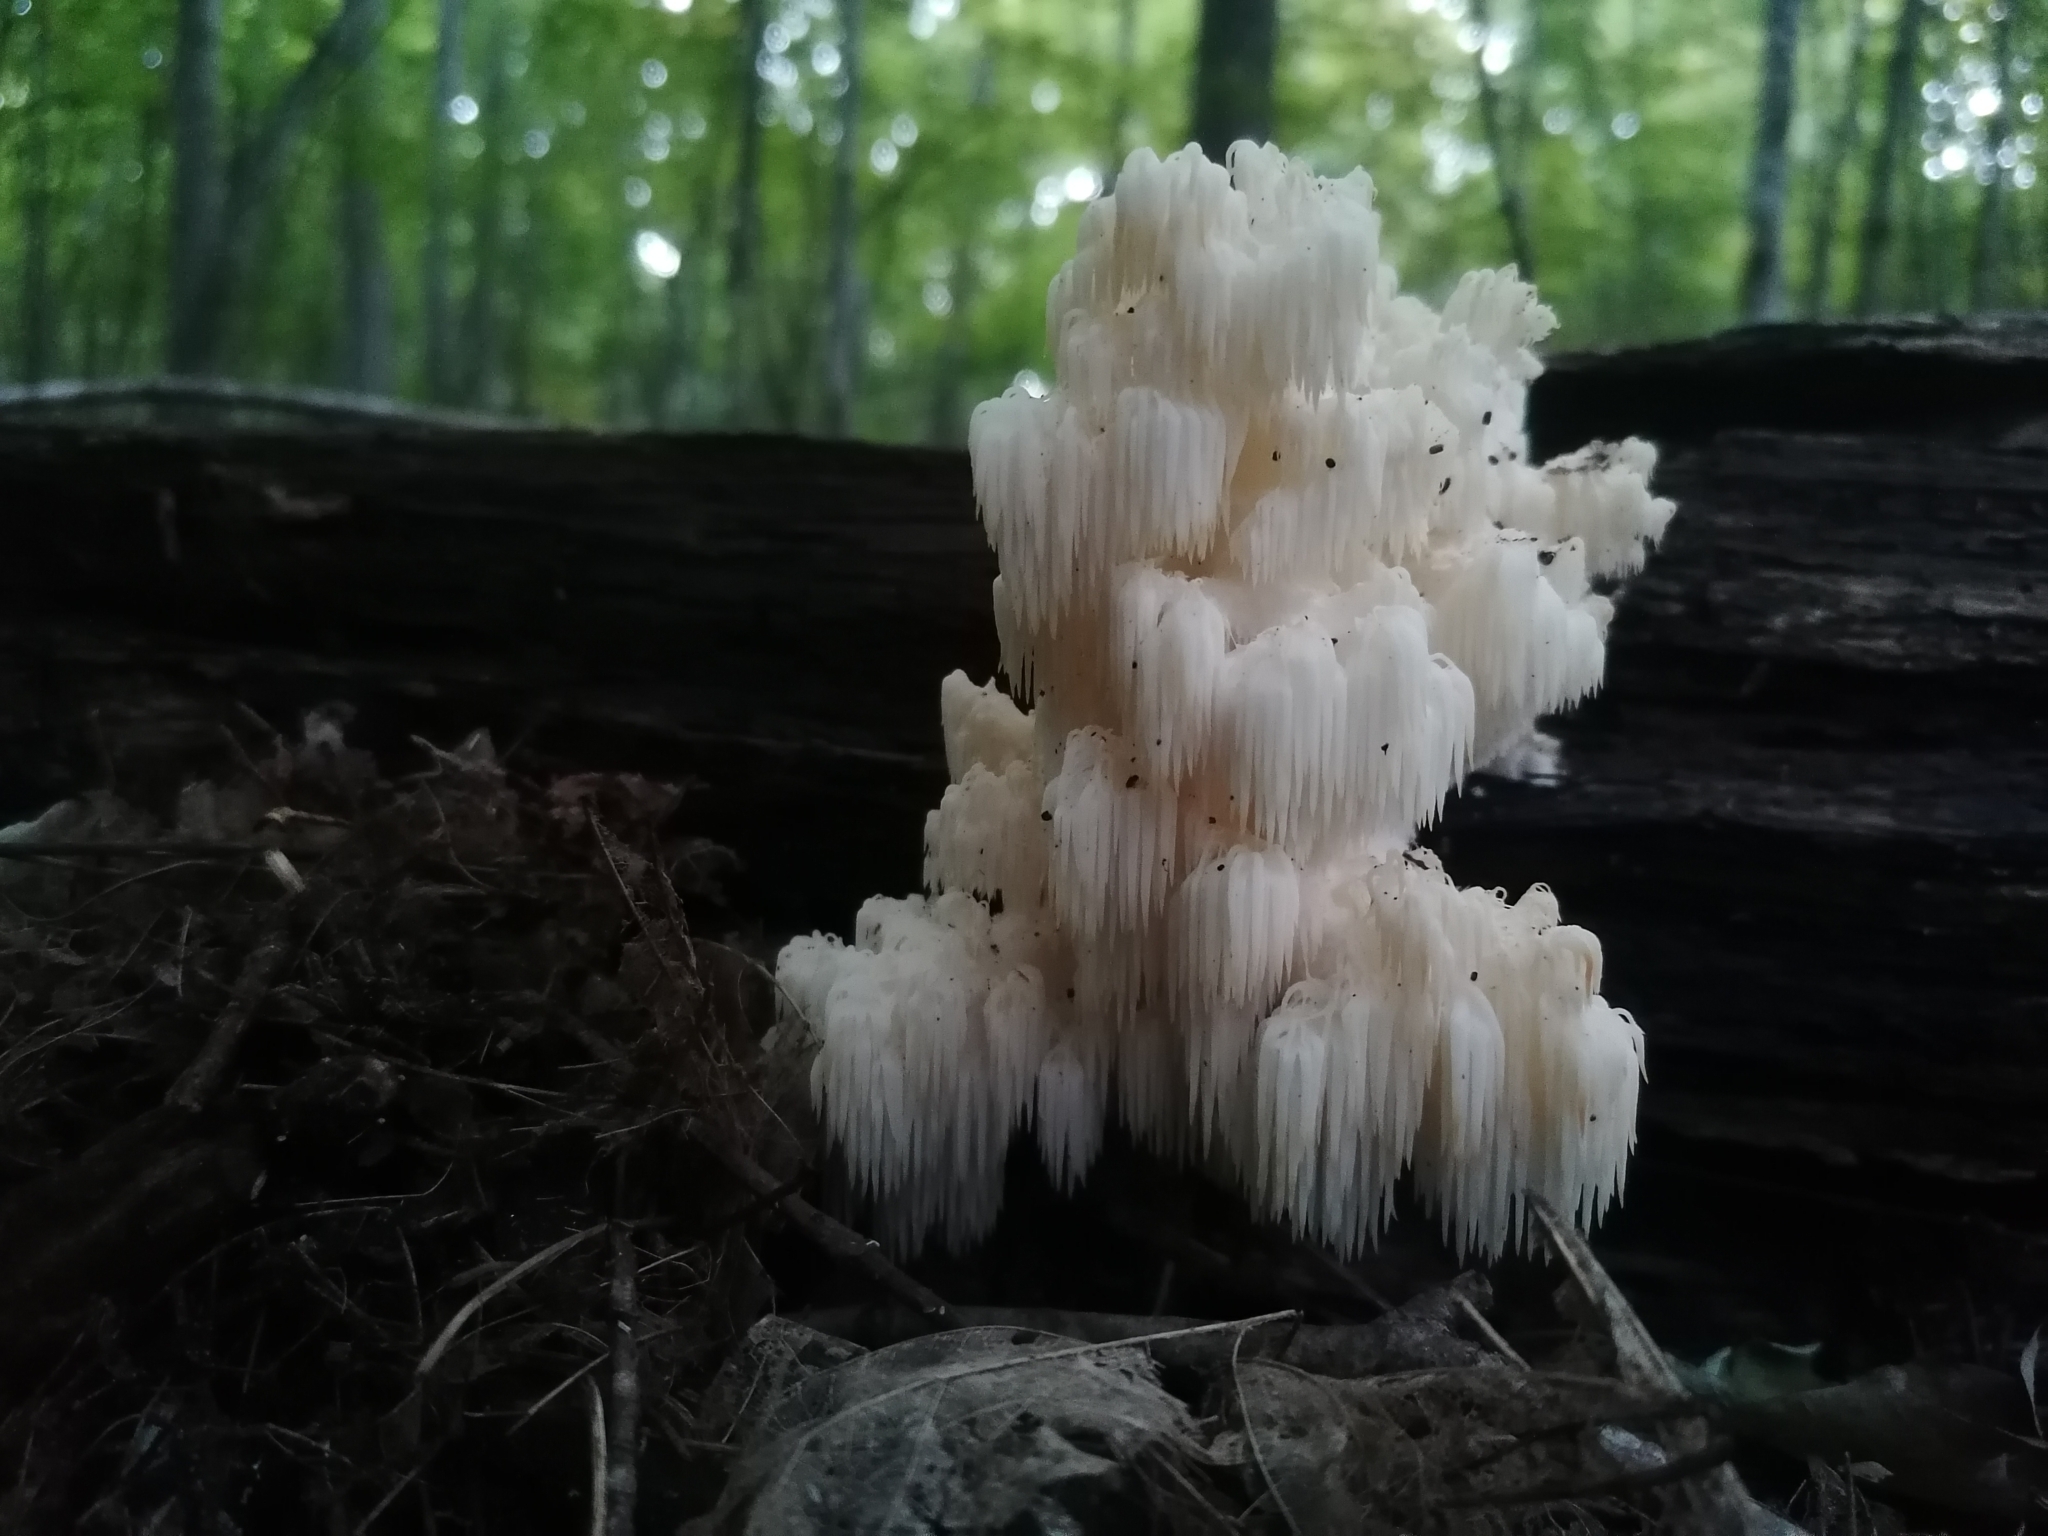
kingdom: Fungi
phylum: Basidiomycota
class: Agaricomycetes
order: Russulales
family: Hericiaceae
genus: Hericium
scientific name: Hericium americanum
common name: Bear's head tooth
